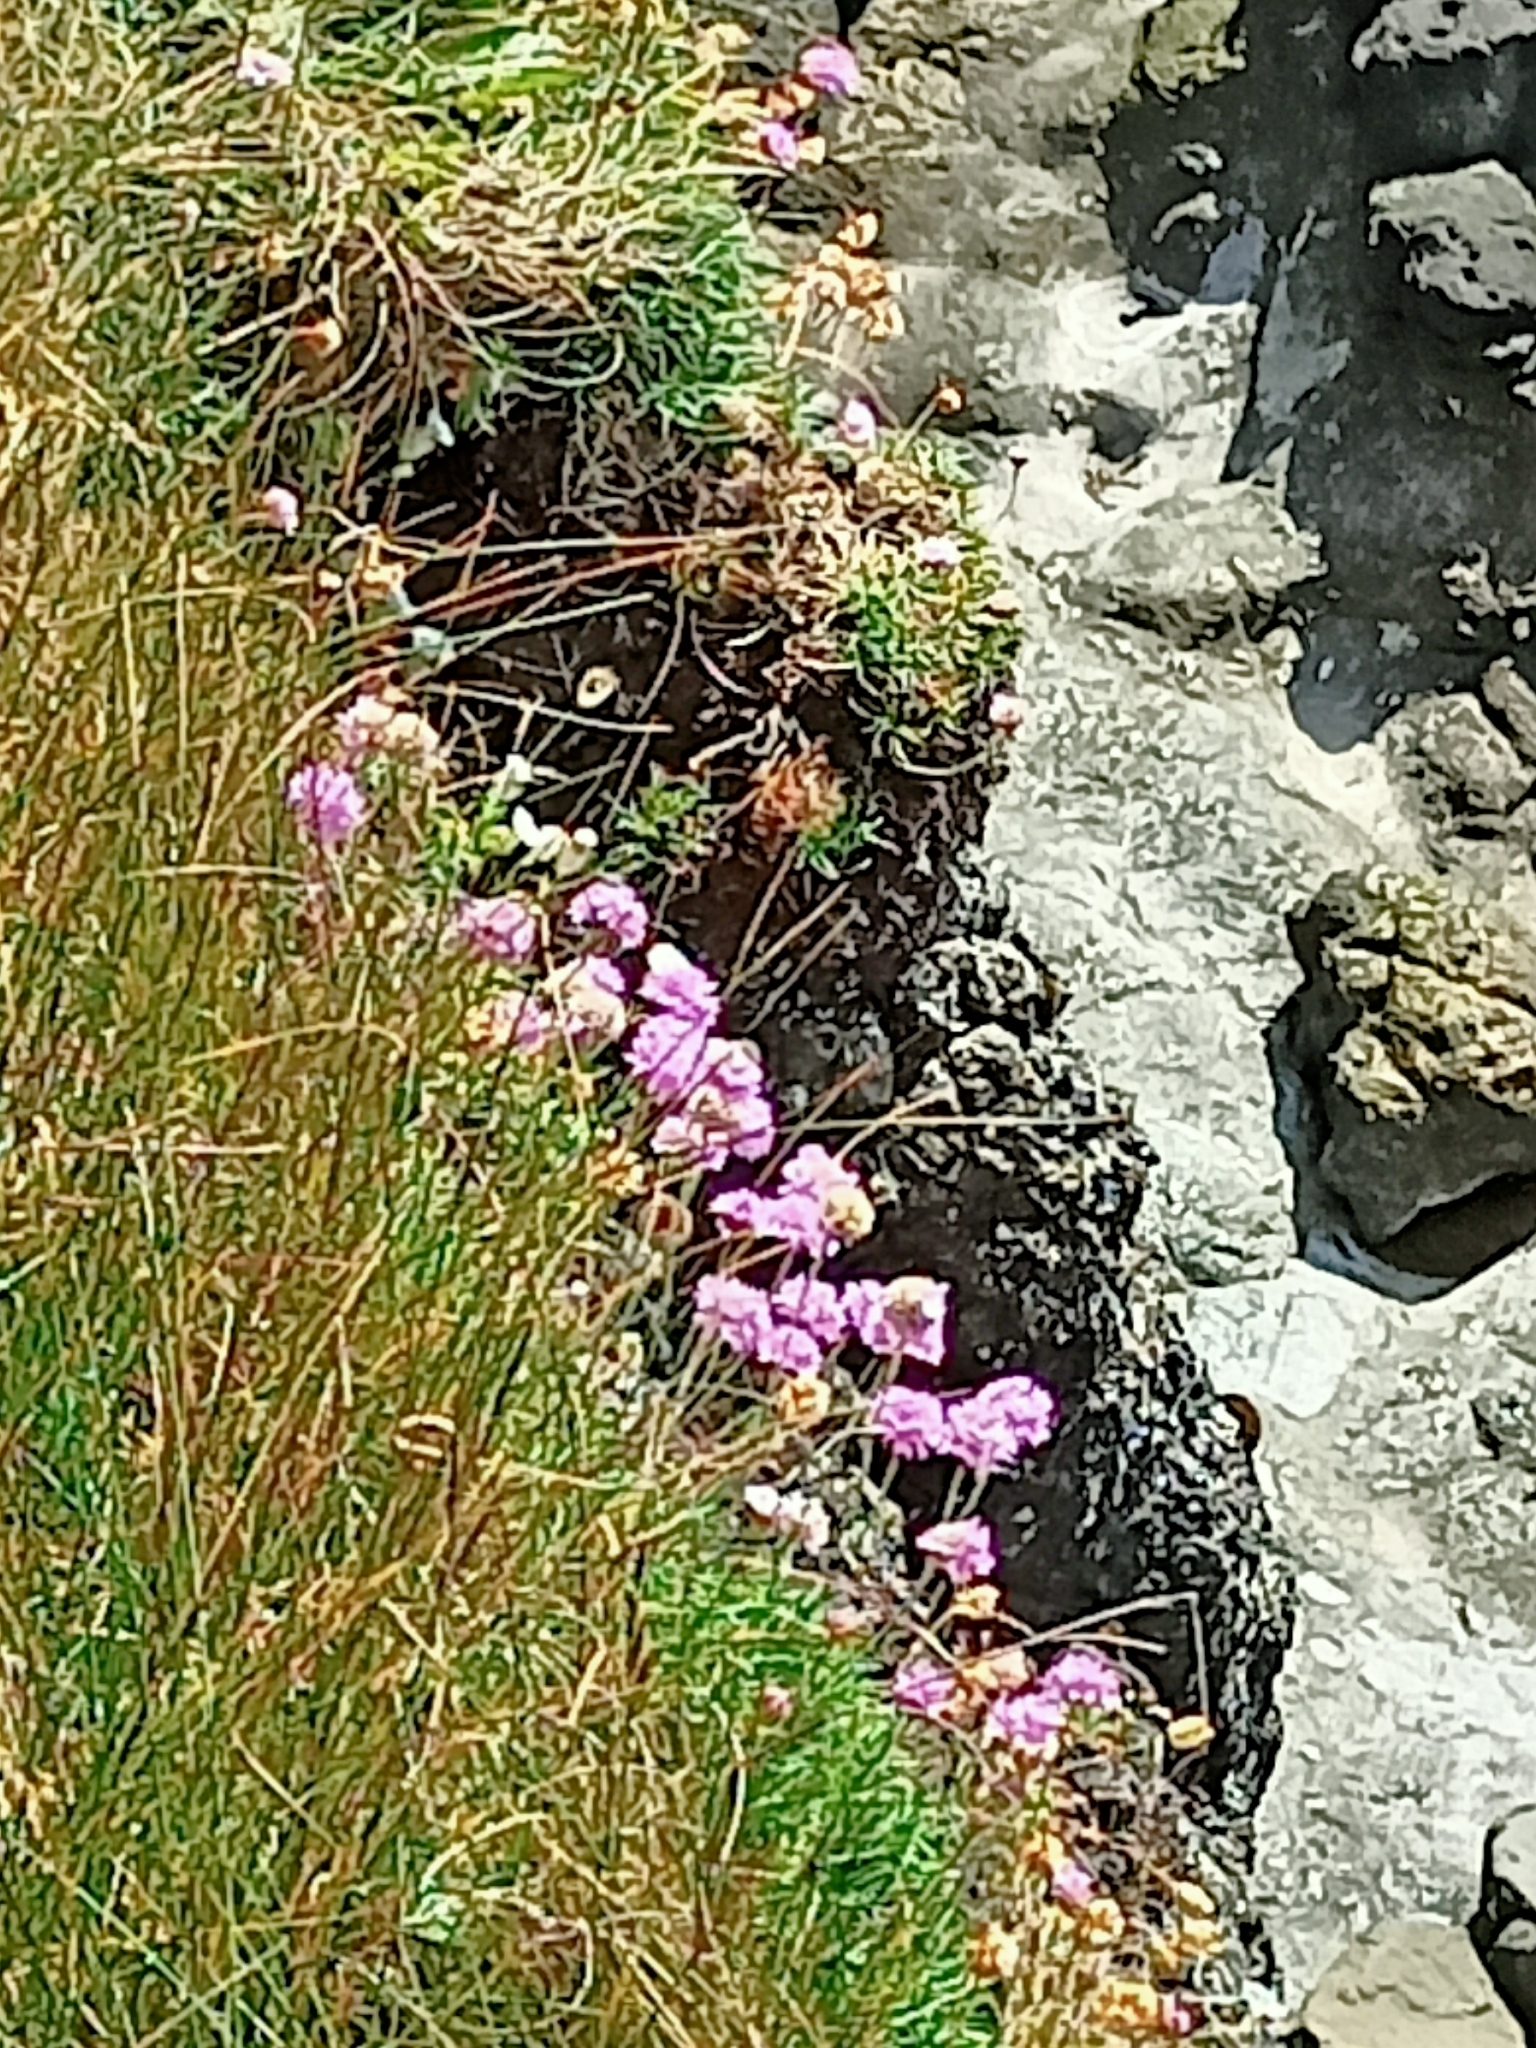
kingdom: Plantae
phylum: Tracheophyta
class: Magnoliopsida
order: Caryophyllales
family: Plumbaginaceae
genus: Armeria
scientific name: Armeria maritima
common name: Thrift
